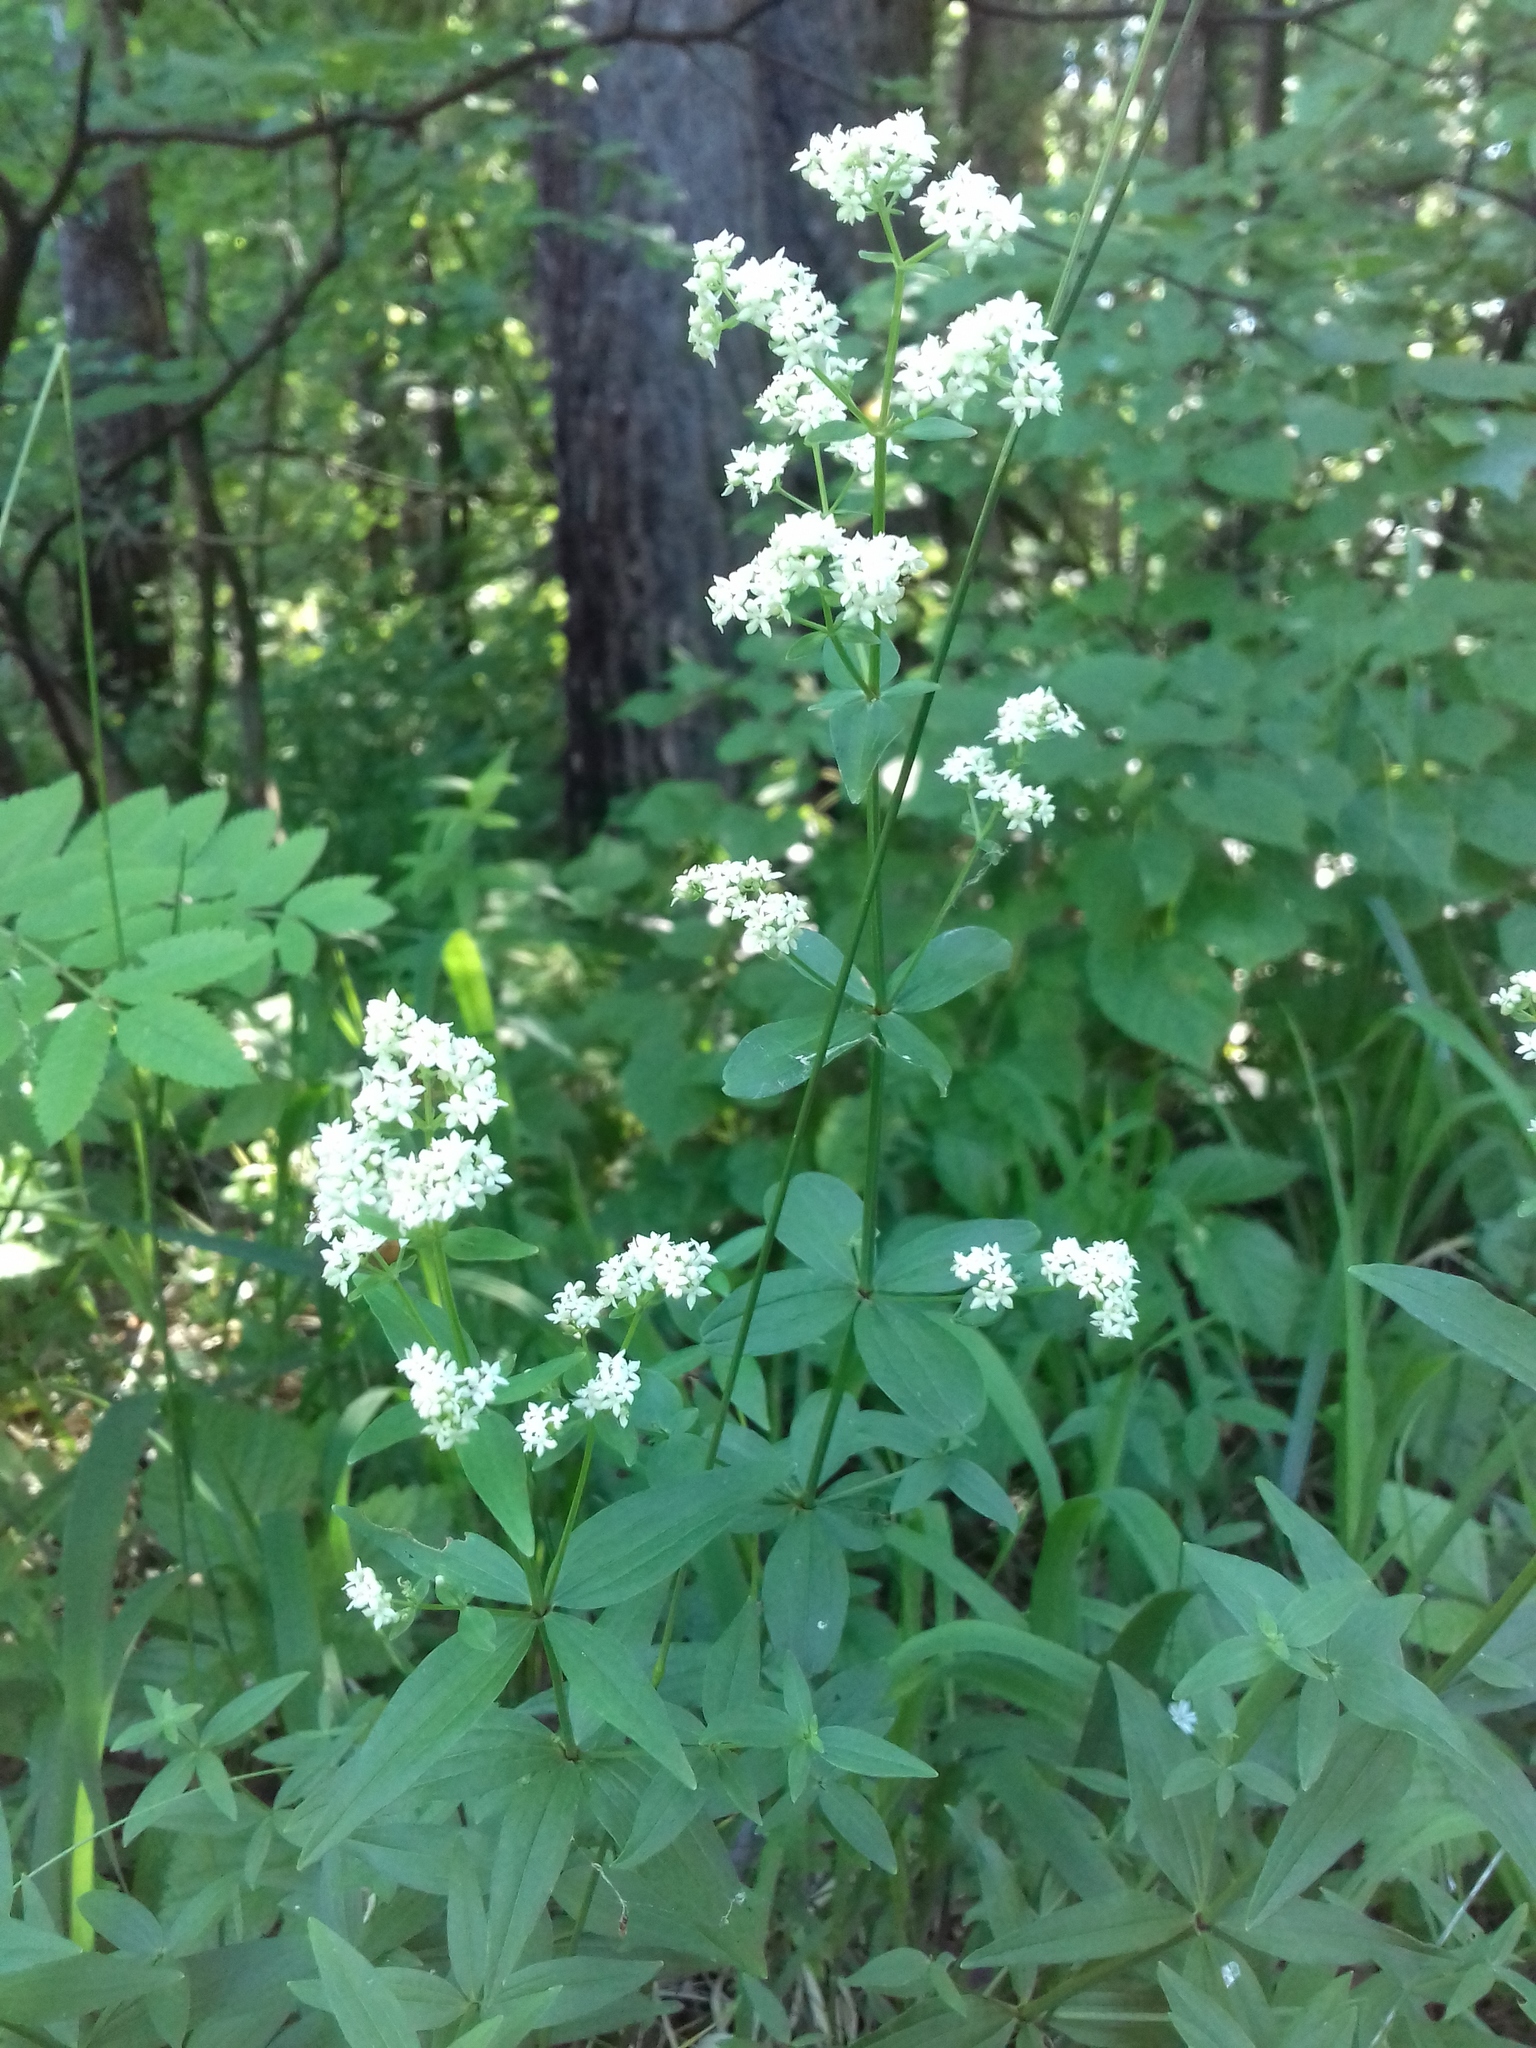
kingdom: Plantae
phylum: Tracheophyta
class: Magnoliopsida
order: Gentianales
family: Rubiaceae
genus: Galium
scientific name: Galium rubioides
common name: European bedstraw
